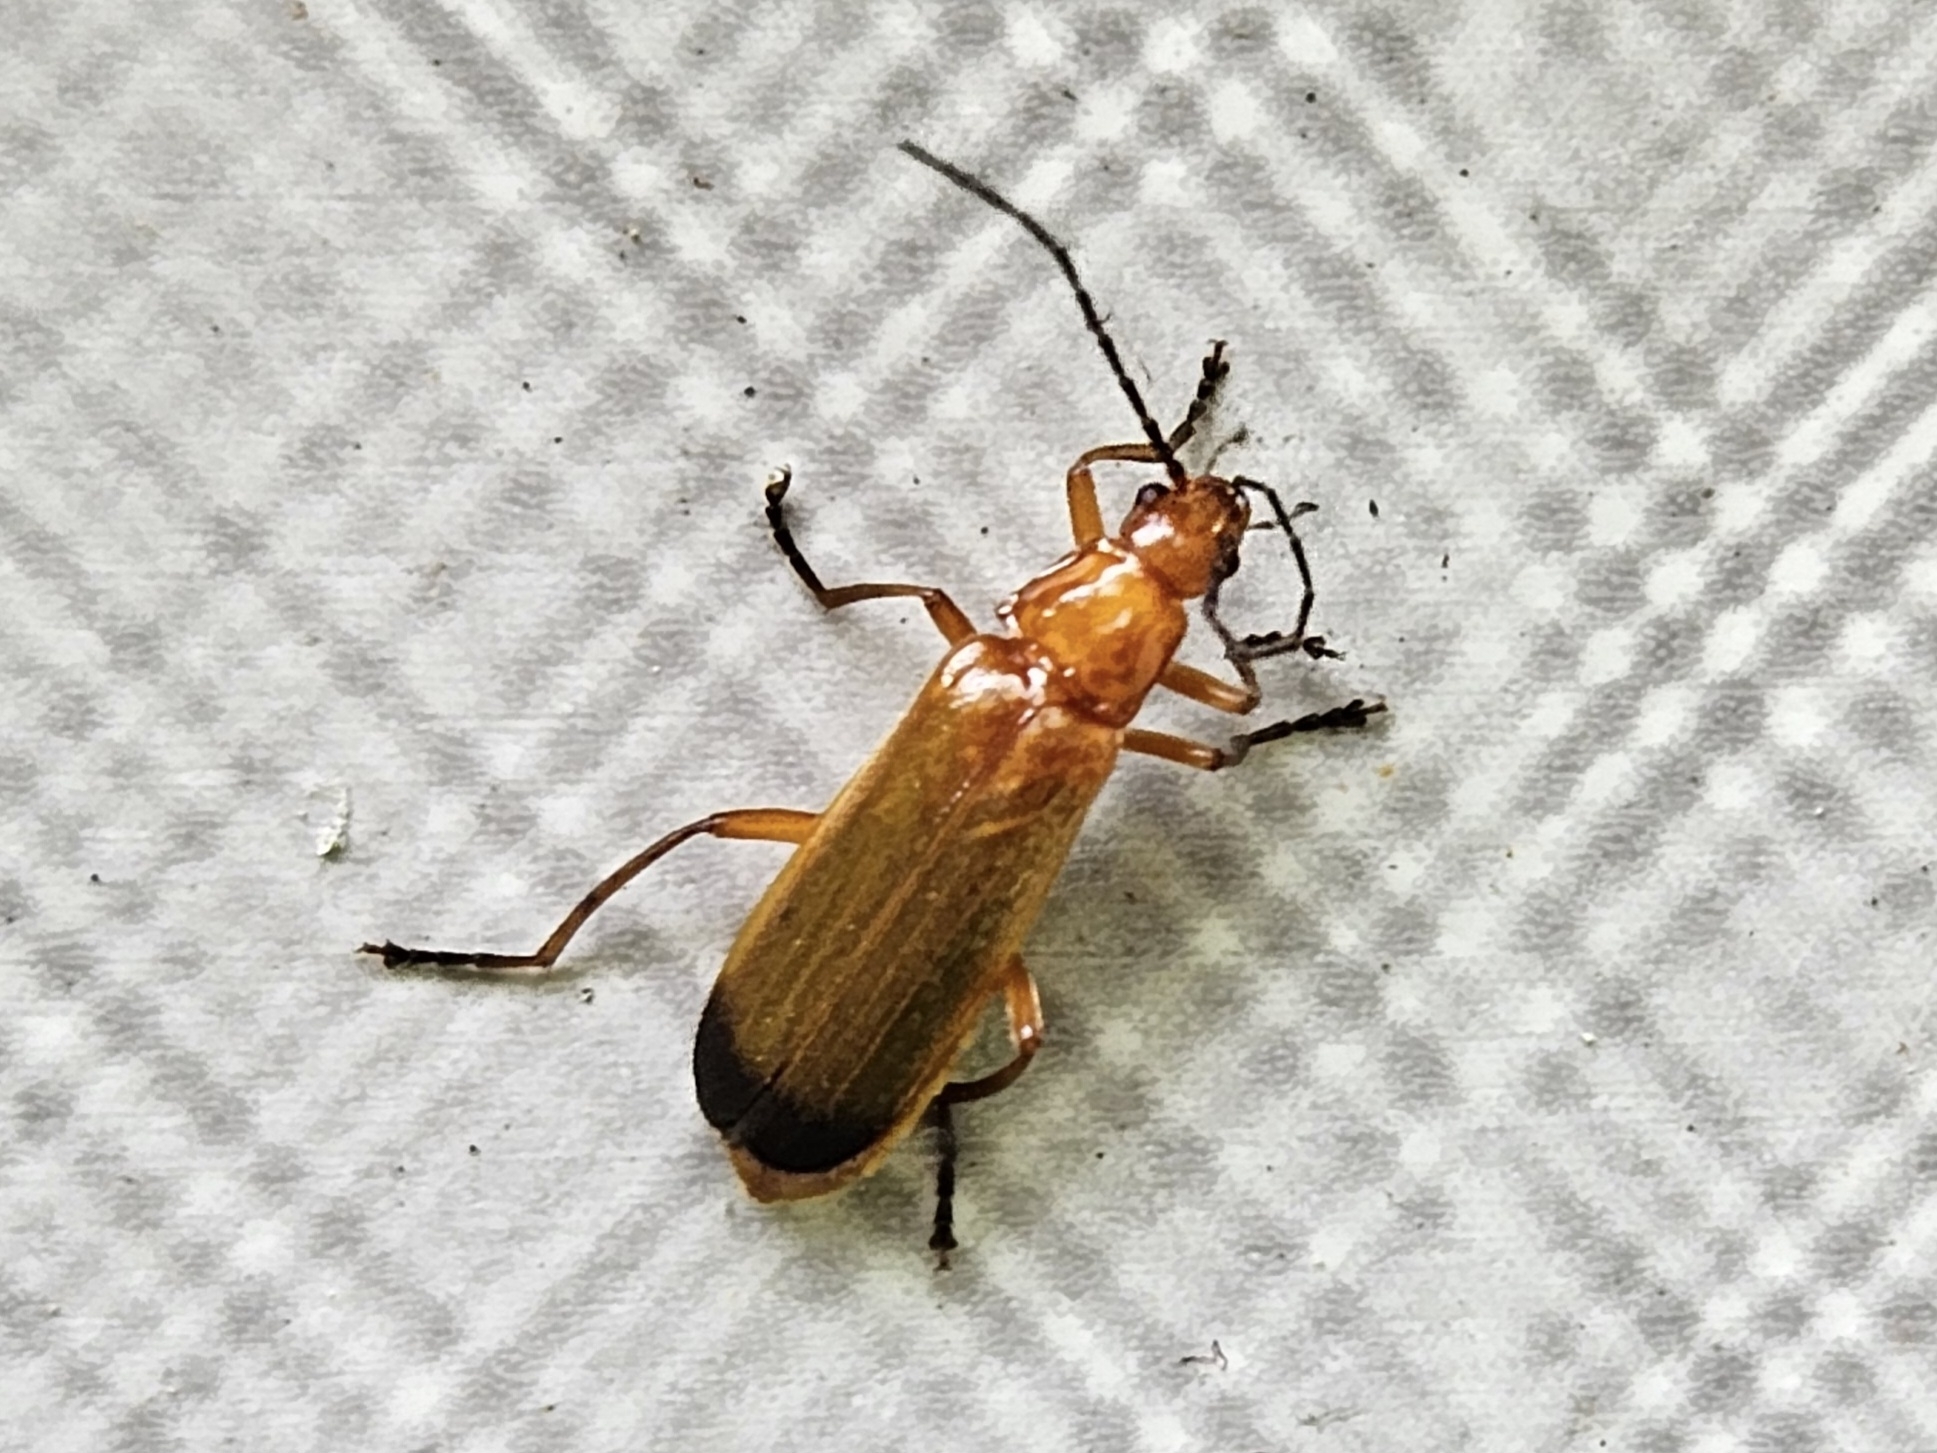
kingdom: Animalia
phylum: Arthropoda
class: Insecta
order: Coleoptera
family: Cantharidae
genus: Rhagonycha
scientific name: Rhagonycha fulva
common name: Common red soldier beetle
